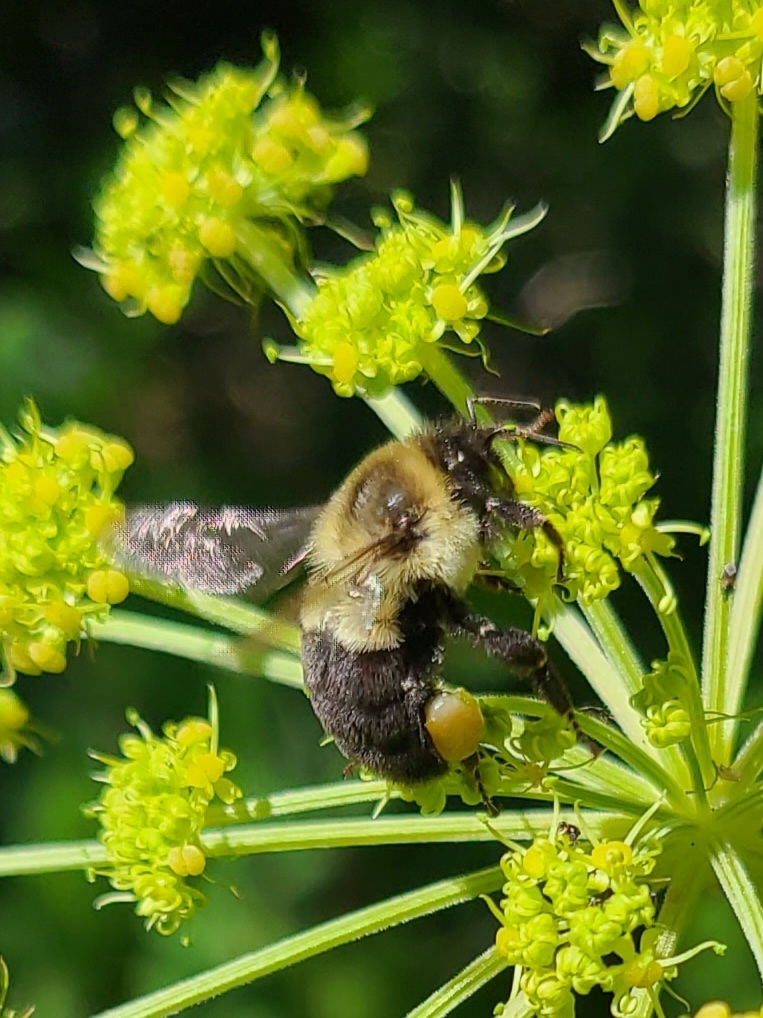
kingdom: Animalia
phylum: Arthropoda
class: Insecta
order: Hymenoptera
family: Apidae
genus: Bombus
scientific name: Bombus impatiens
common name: Common eastern bumble bee
